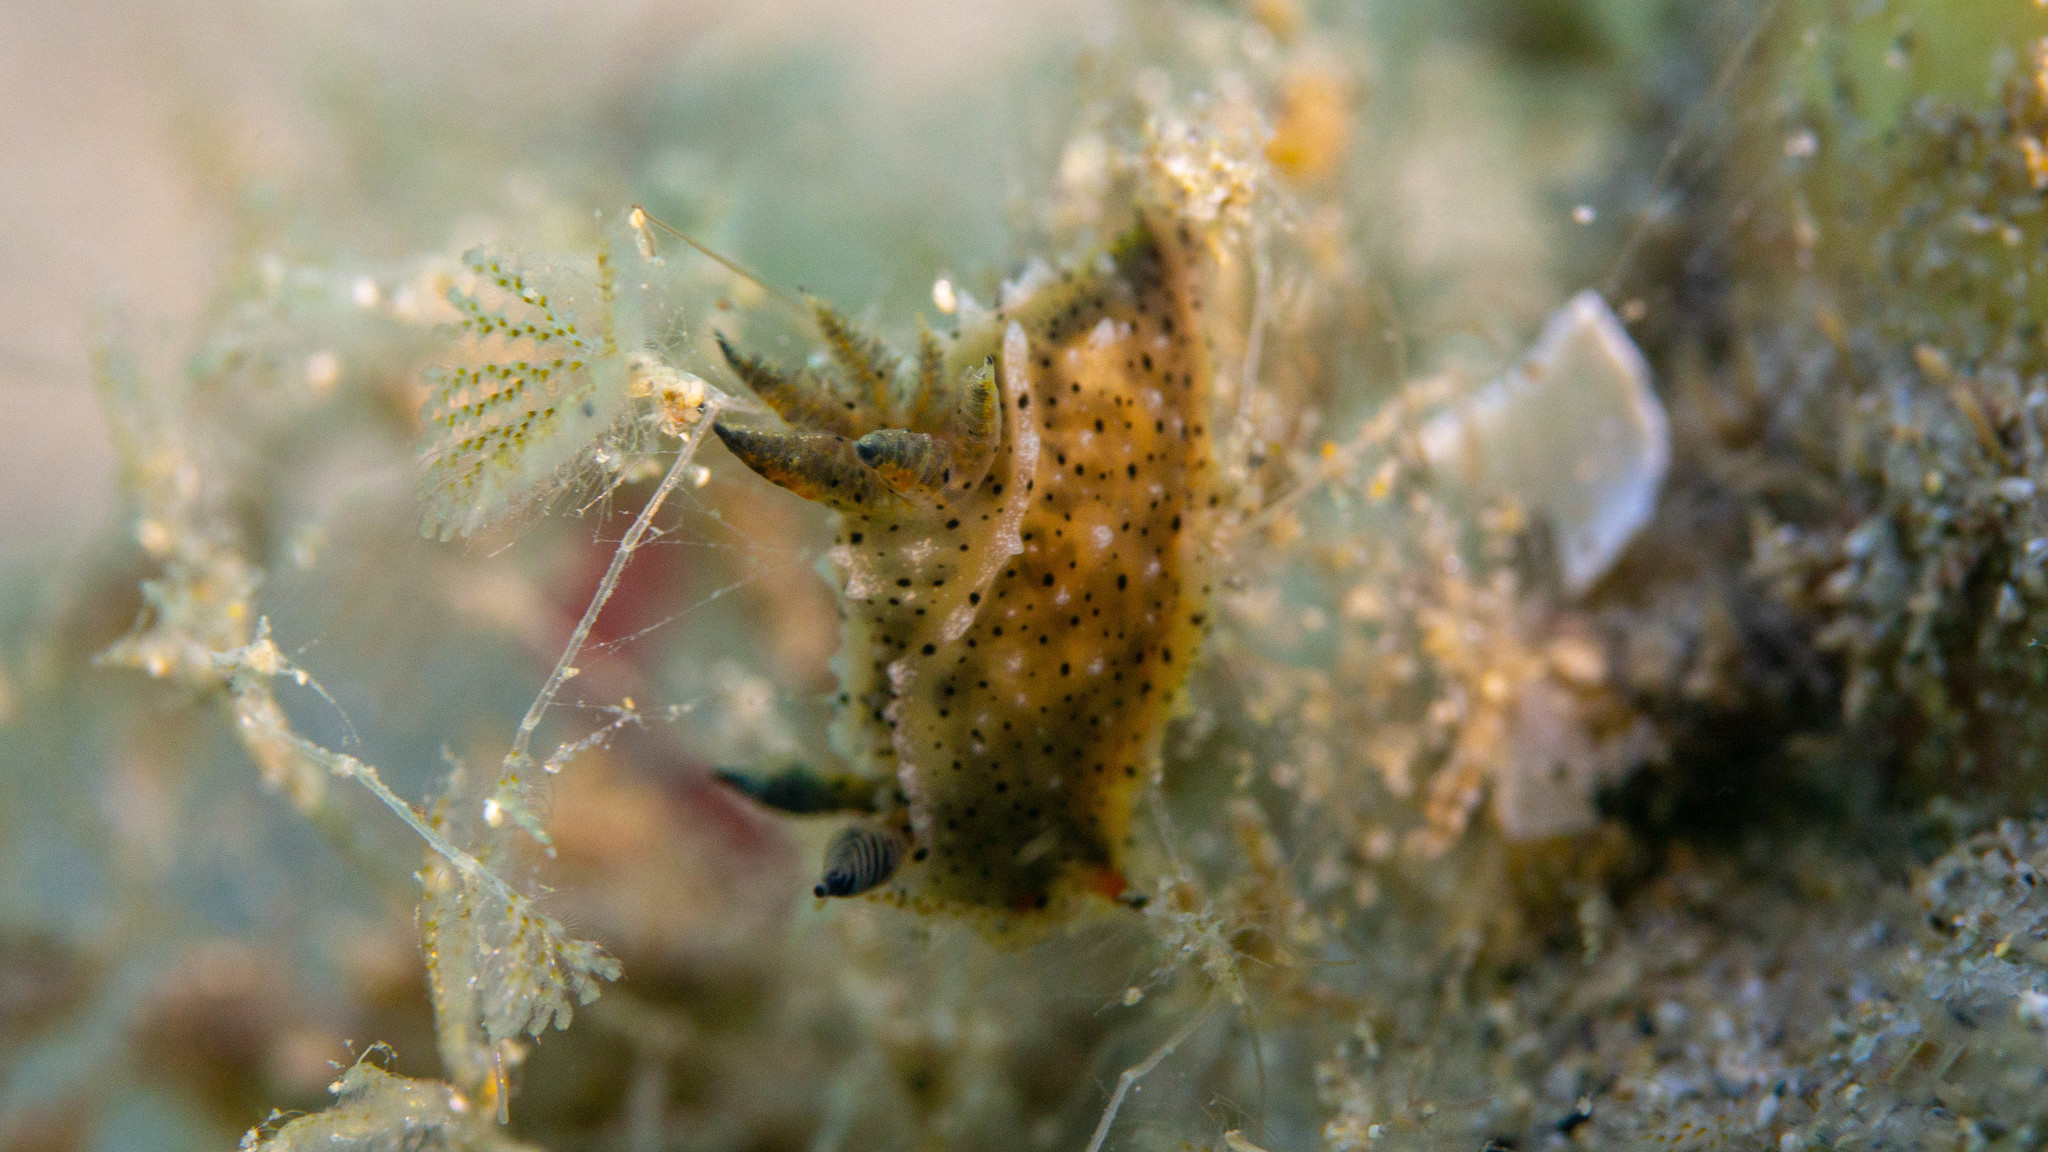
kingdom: Animalia
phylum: Mollusca
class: Gastropoda
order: Nudibranchia
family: Polyceridae
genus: Polycera
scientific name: Polycera melanosticta
